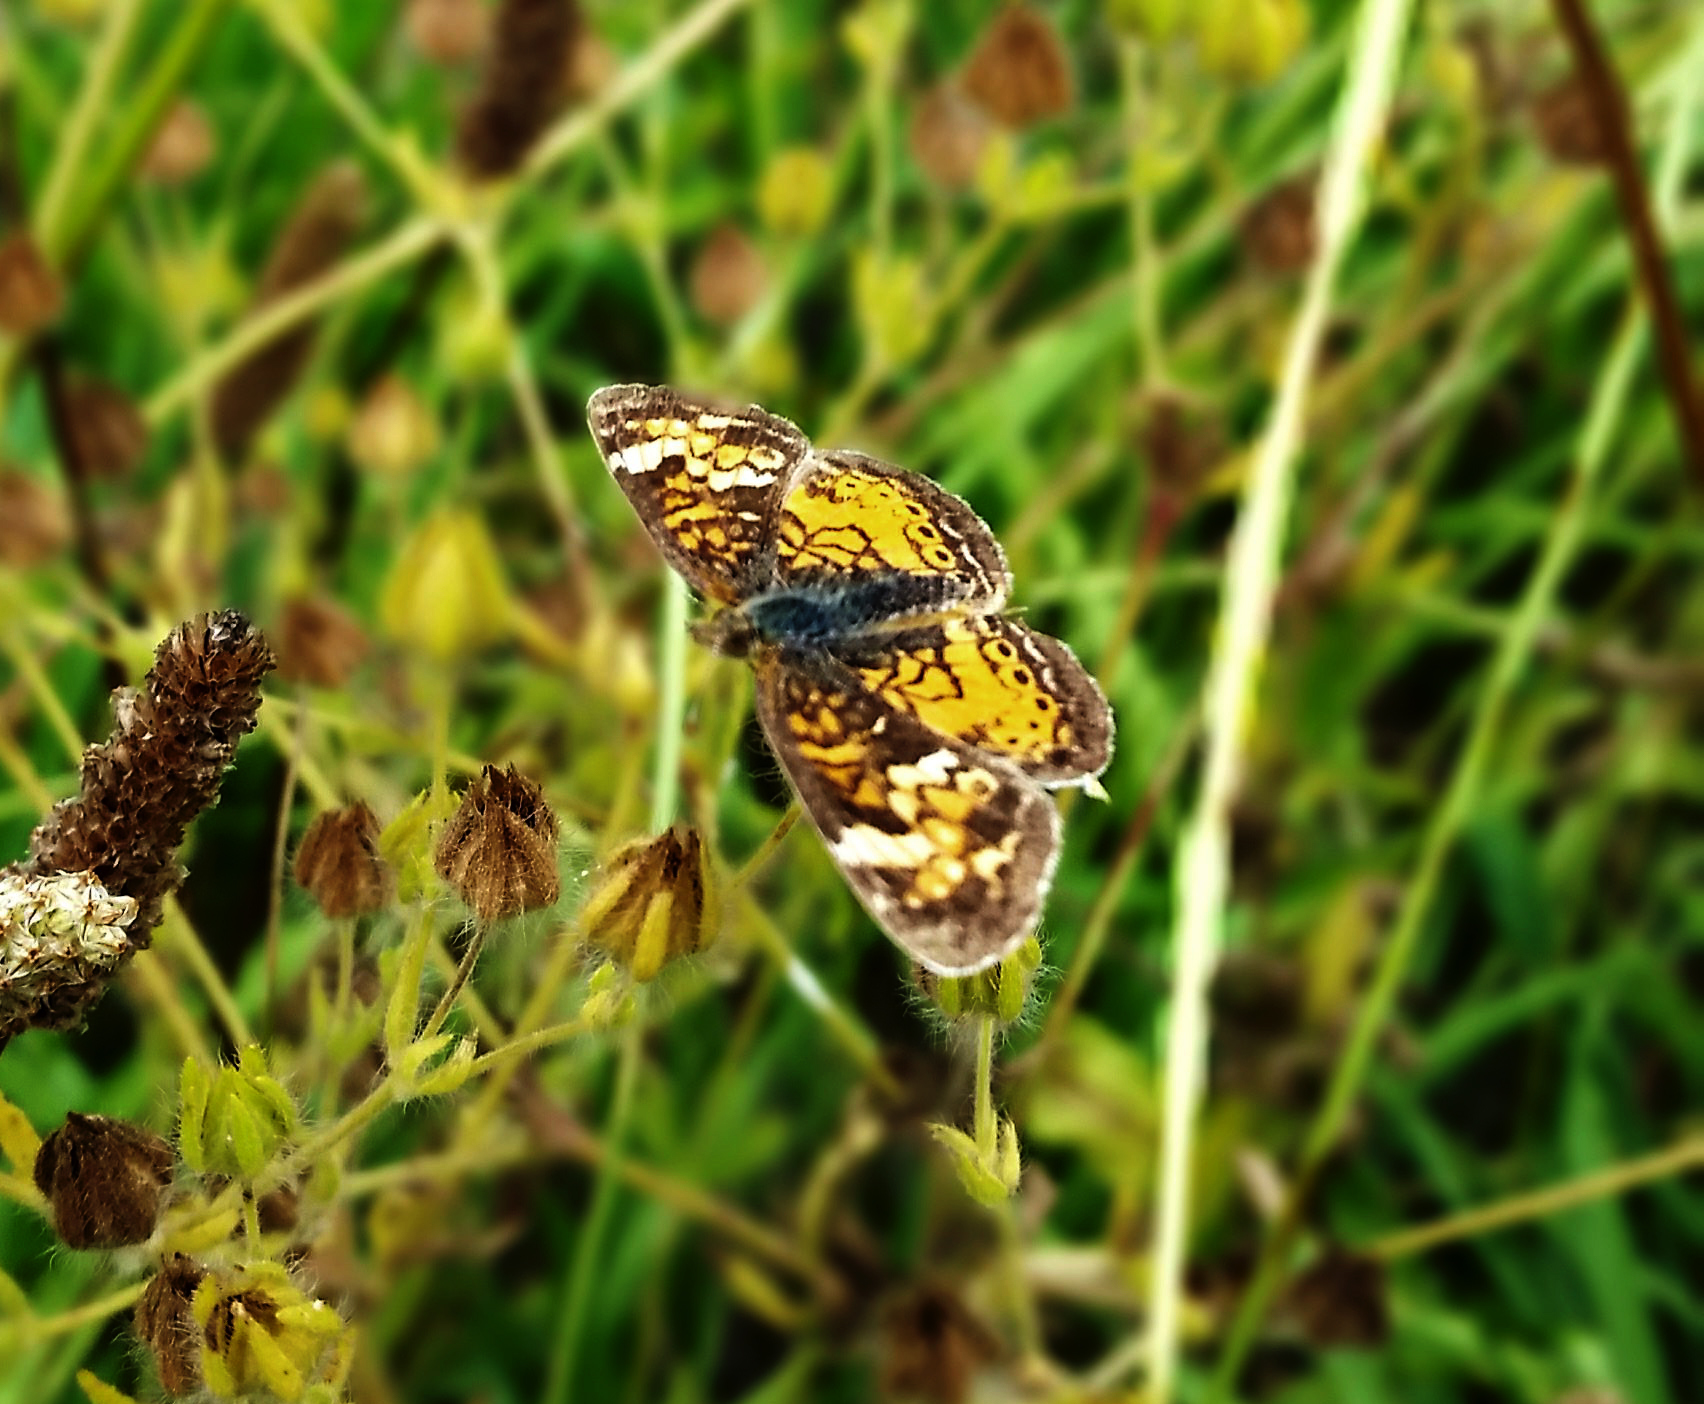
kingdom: Animalia
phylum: Arthropoda
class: Insecta
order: Lepidoptera
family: Nymphalidae
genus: Phyciodes
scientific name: Phyciodes tharos
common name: Pearl crescent
